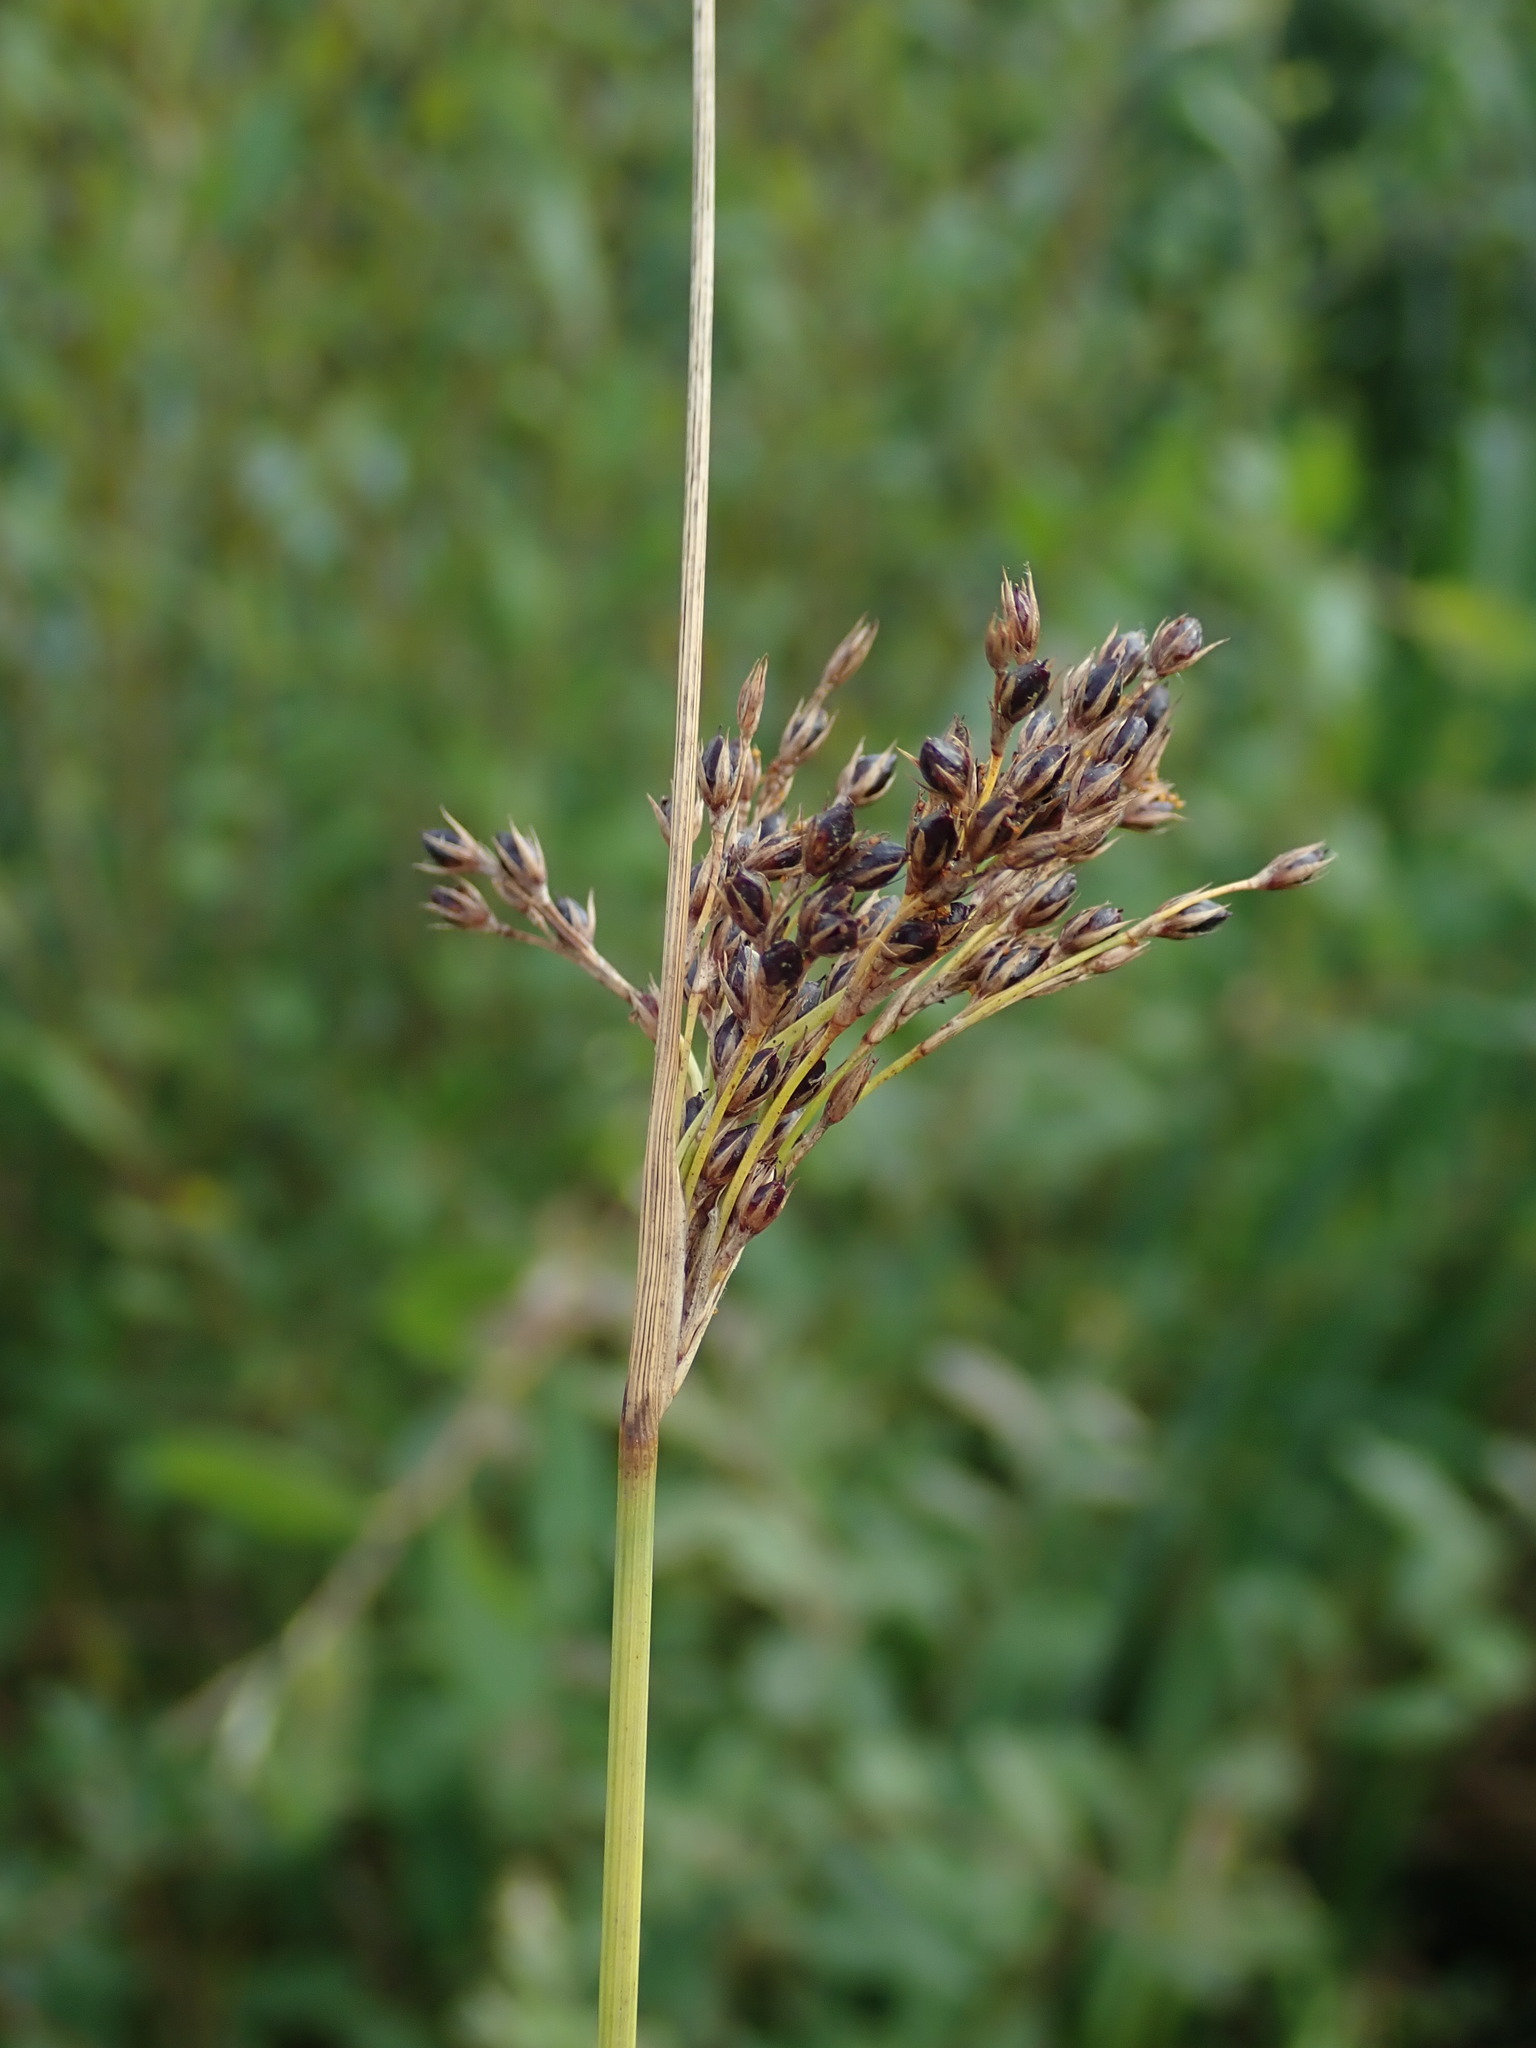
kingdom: Plantae
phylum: Tracheophyta
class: Liliopsida
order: Poales
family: Juncaceae
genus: Juncus
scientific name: Juncus inflexus
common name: Hard rush
